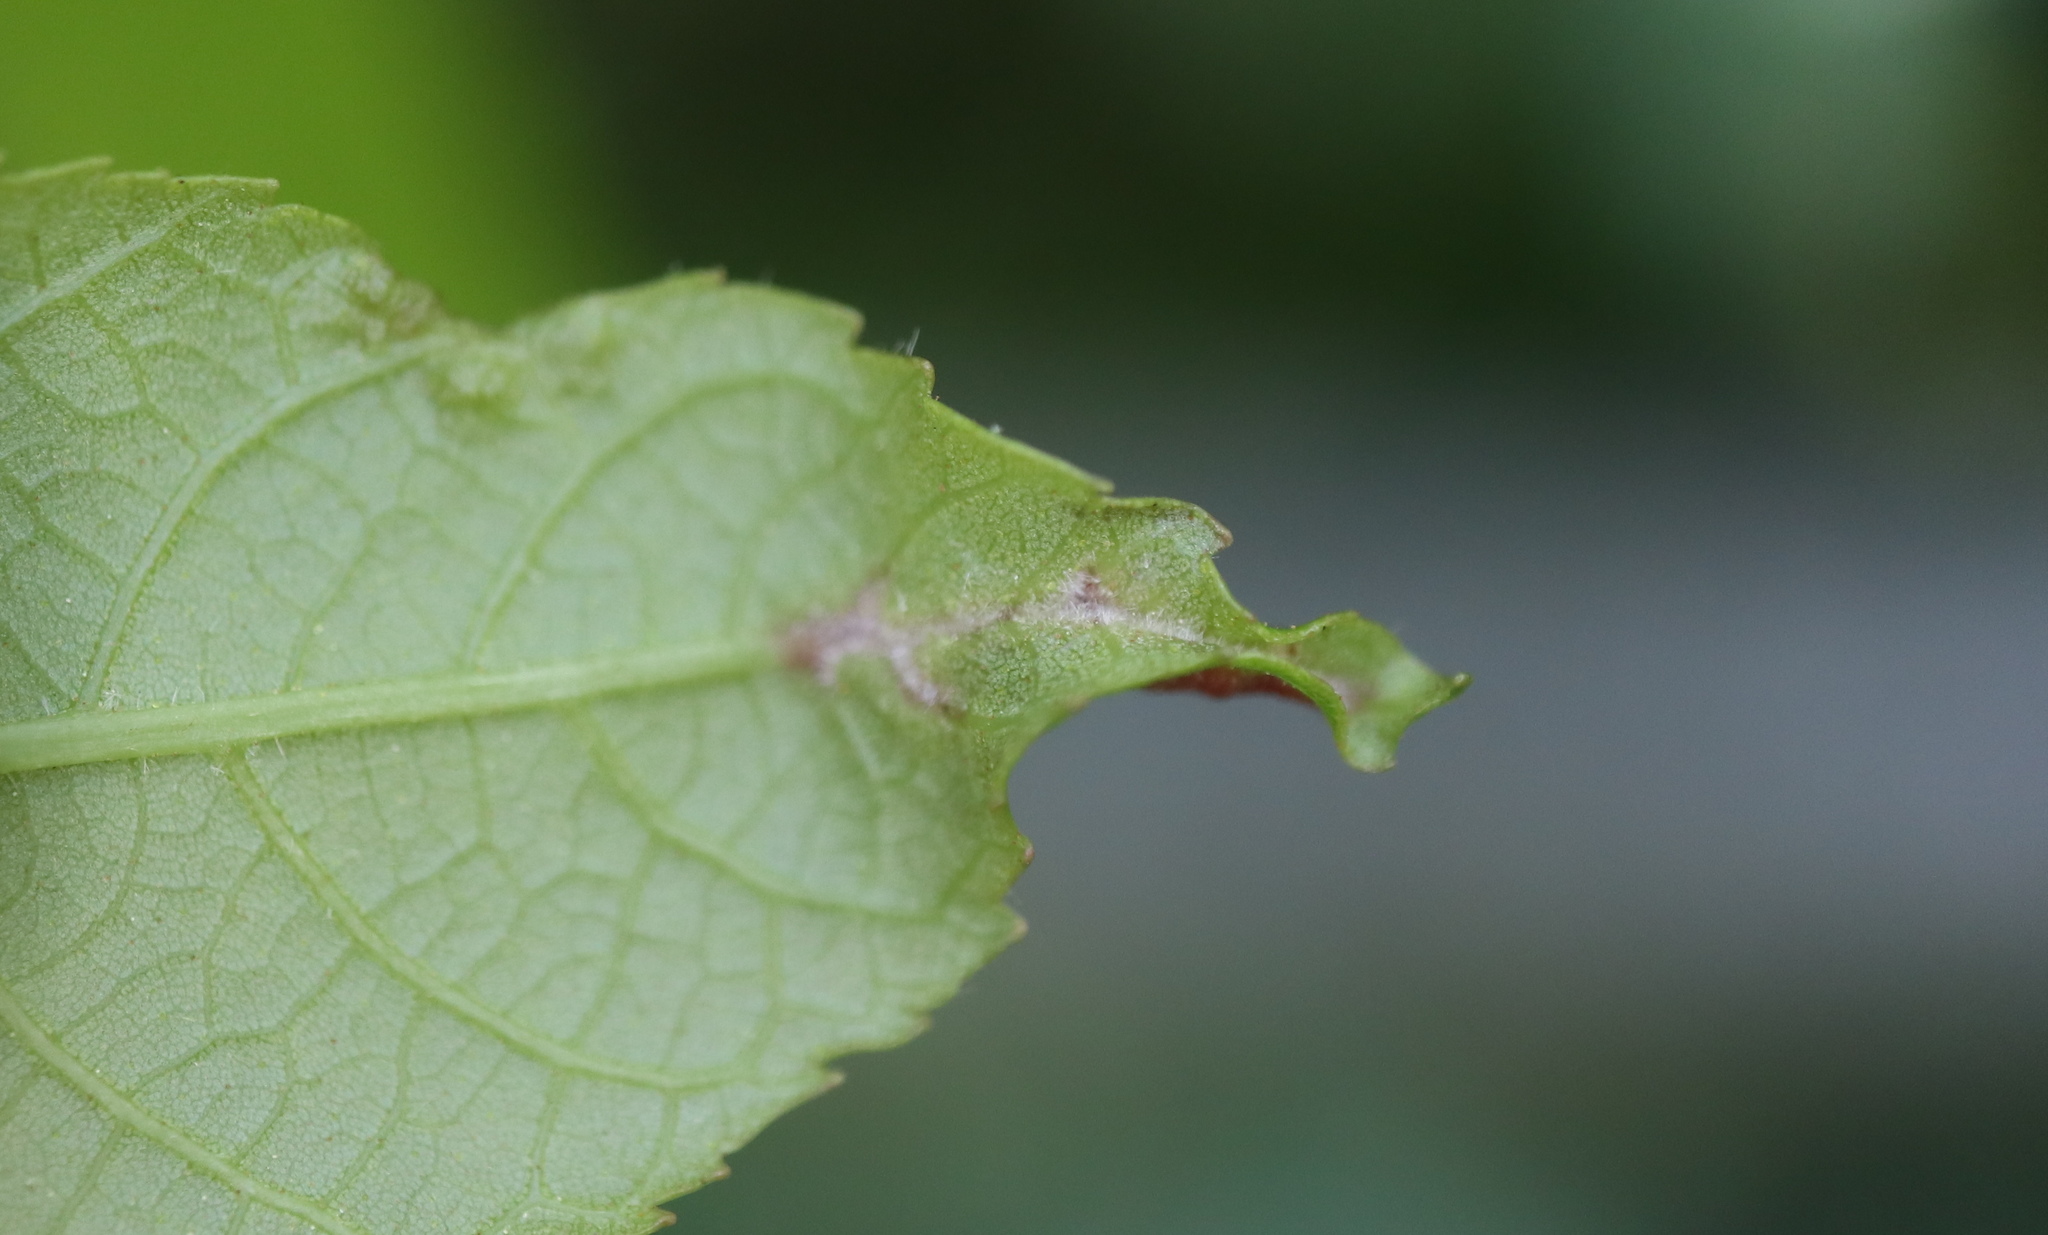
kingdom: Animalia
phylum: Arthropoda
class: Insecta
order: Hemiptera
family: Phylloxeridae
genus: Phylloxera
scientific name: Phylloxera caryaevenae
